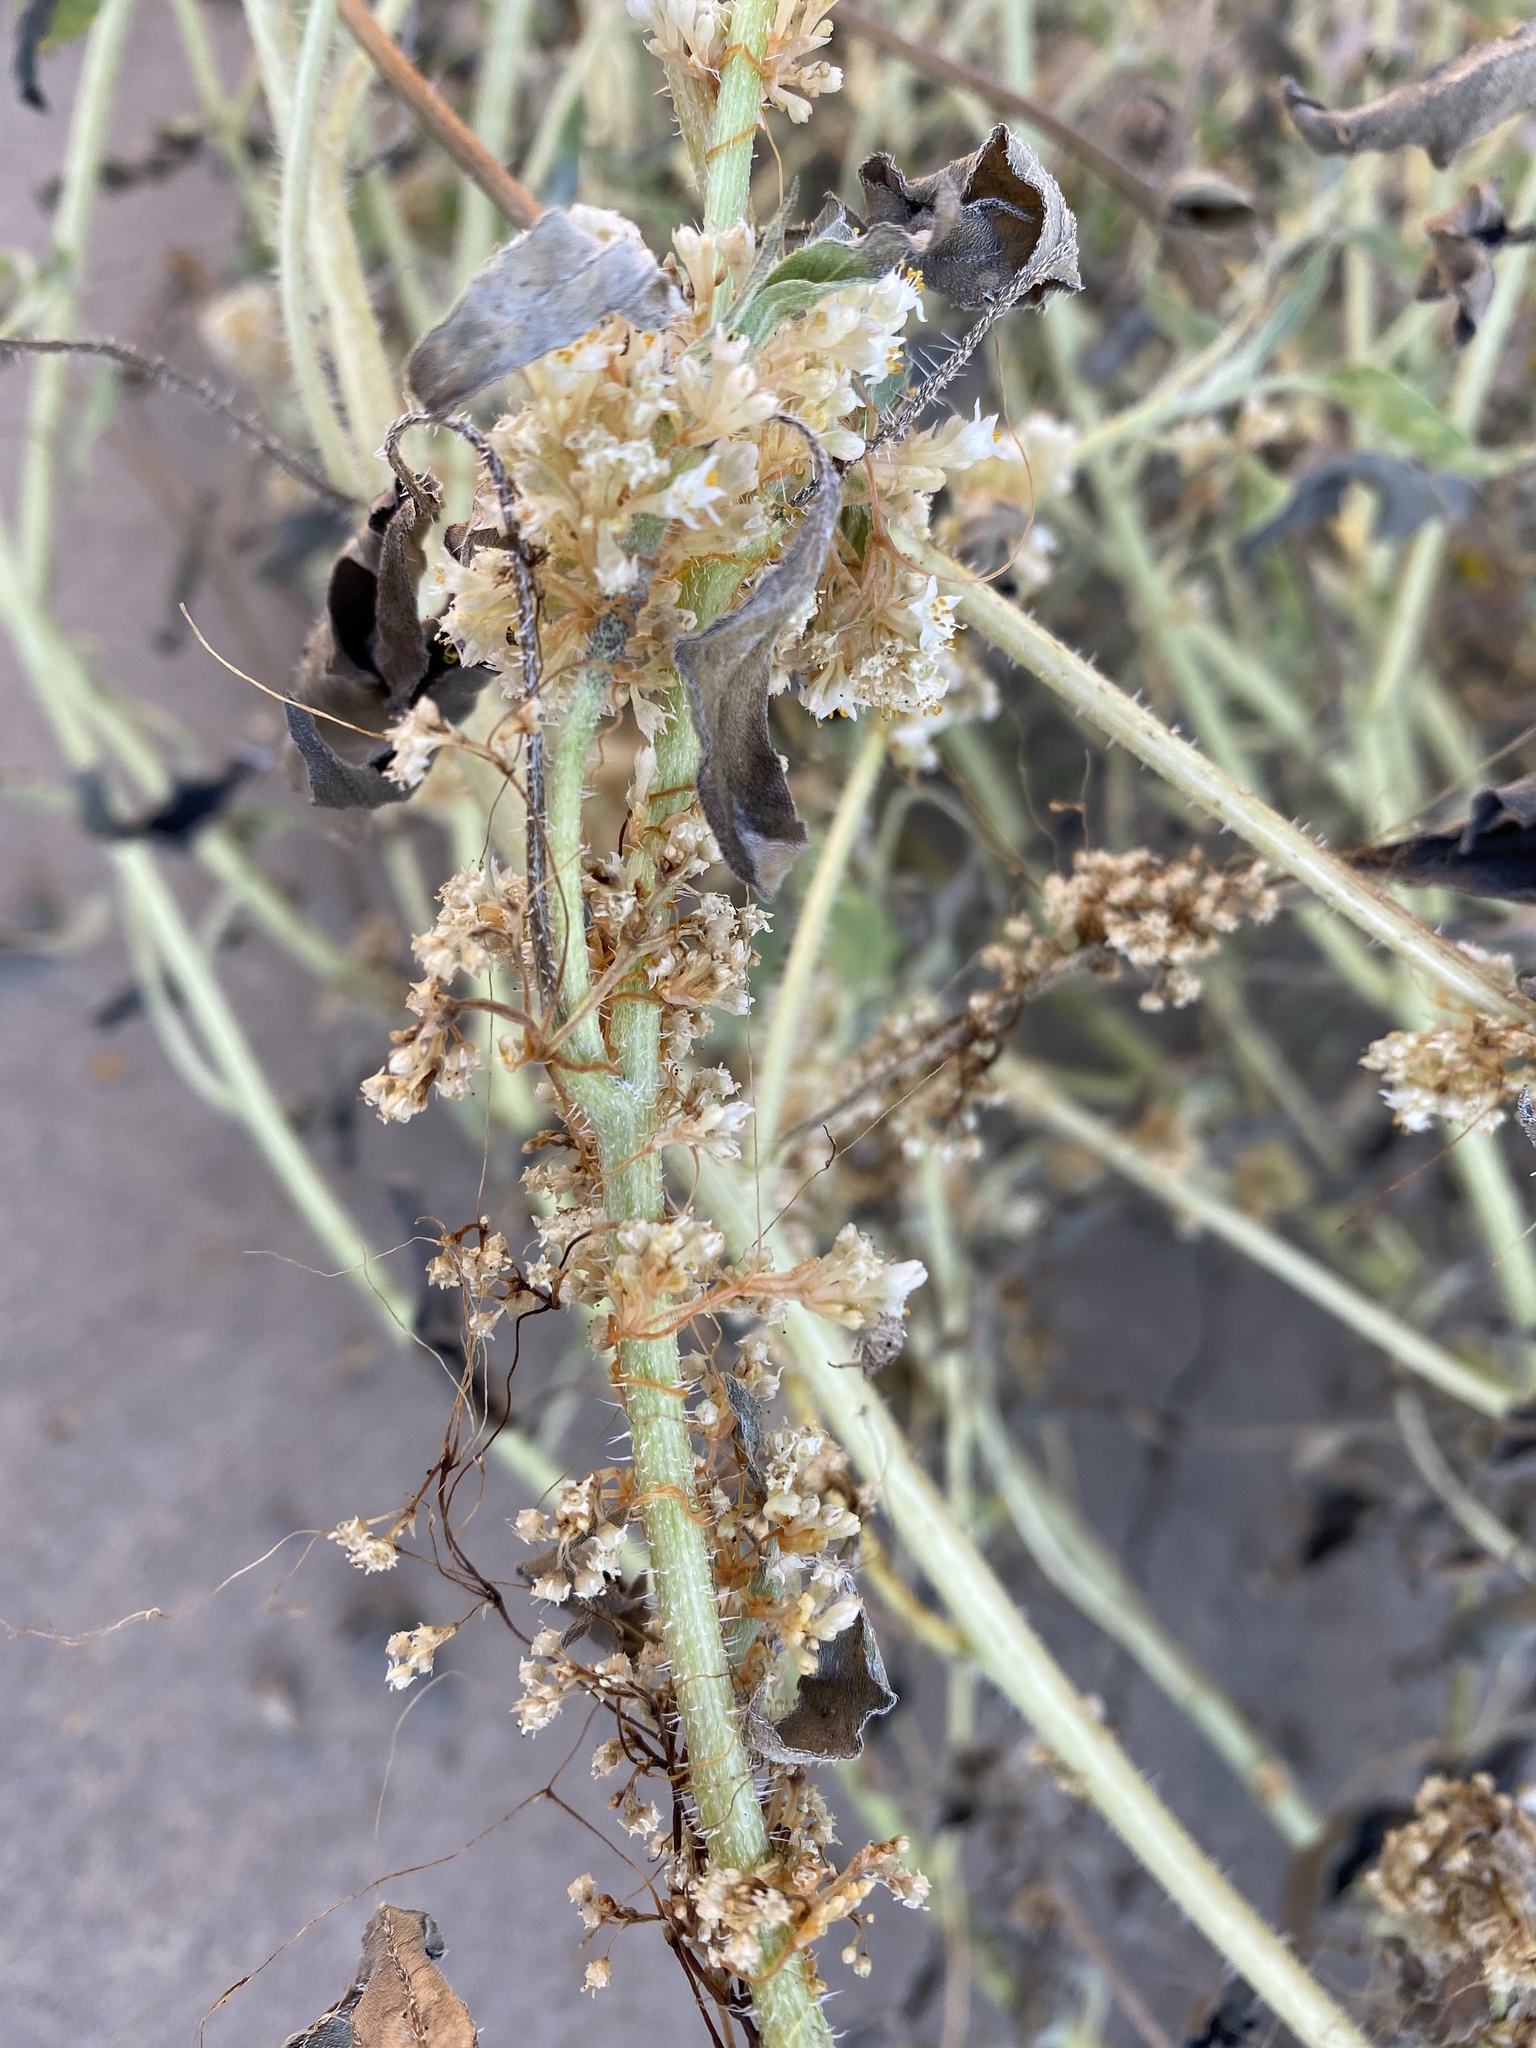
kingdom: Plantae
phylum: Tracheophyta
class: Magnoliopsida
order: Solanales
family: Convolvulaceae
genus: Cuscuta
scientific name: Cuscuta
